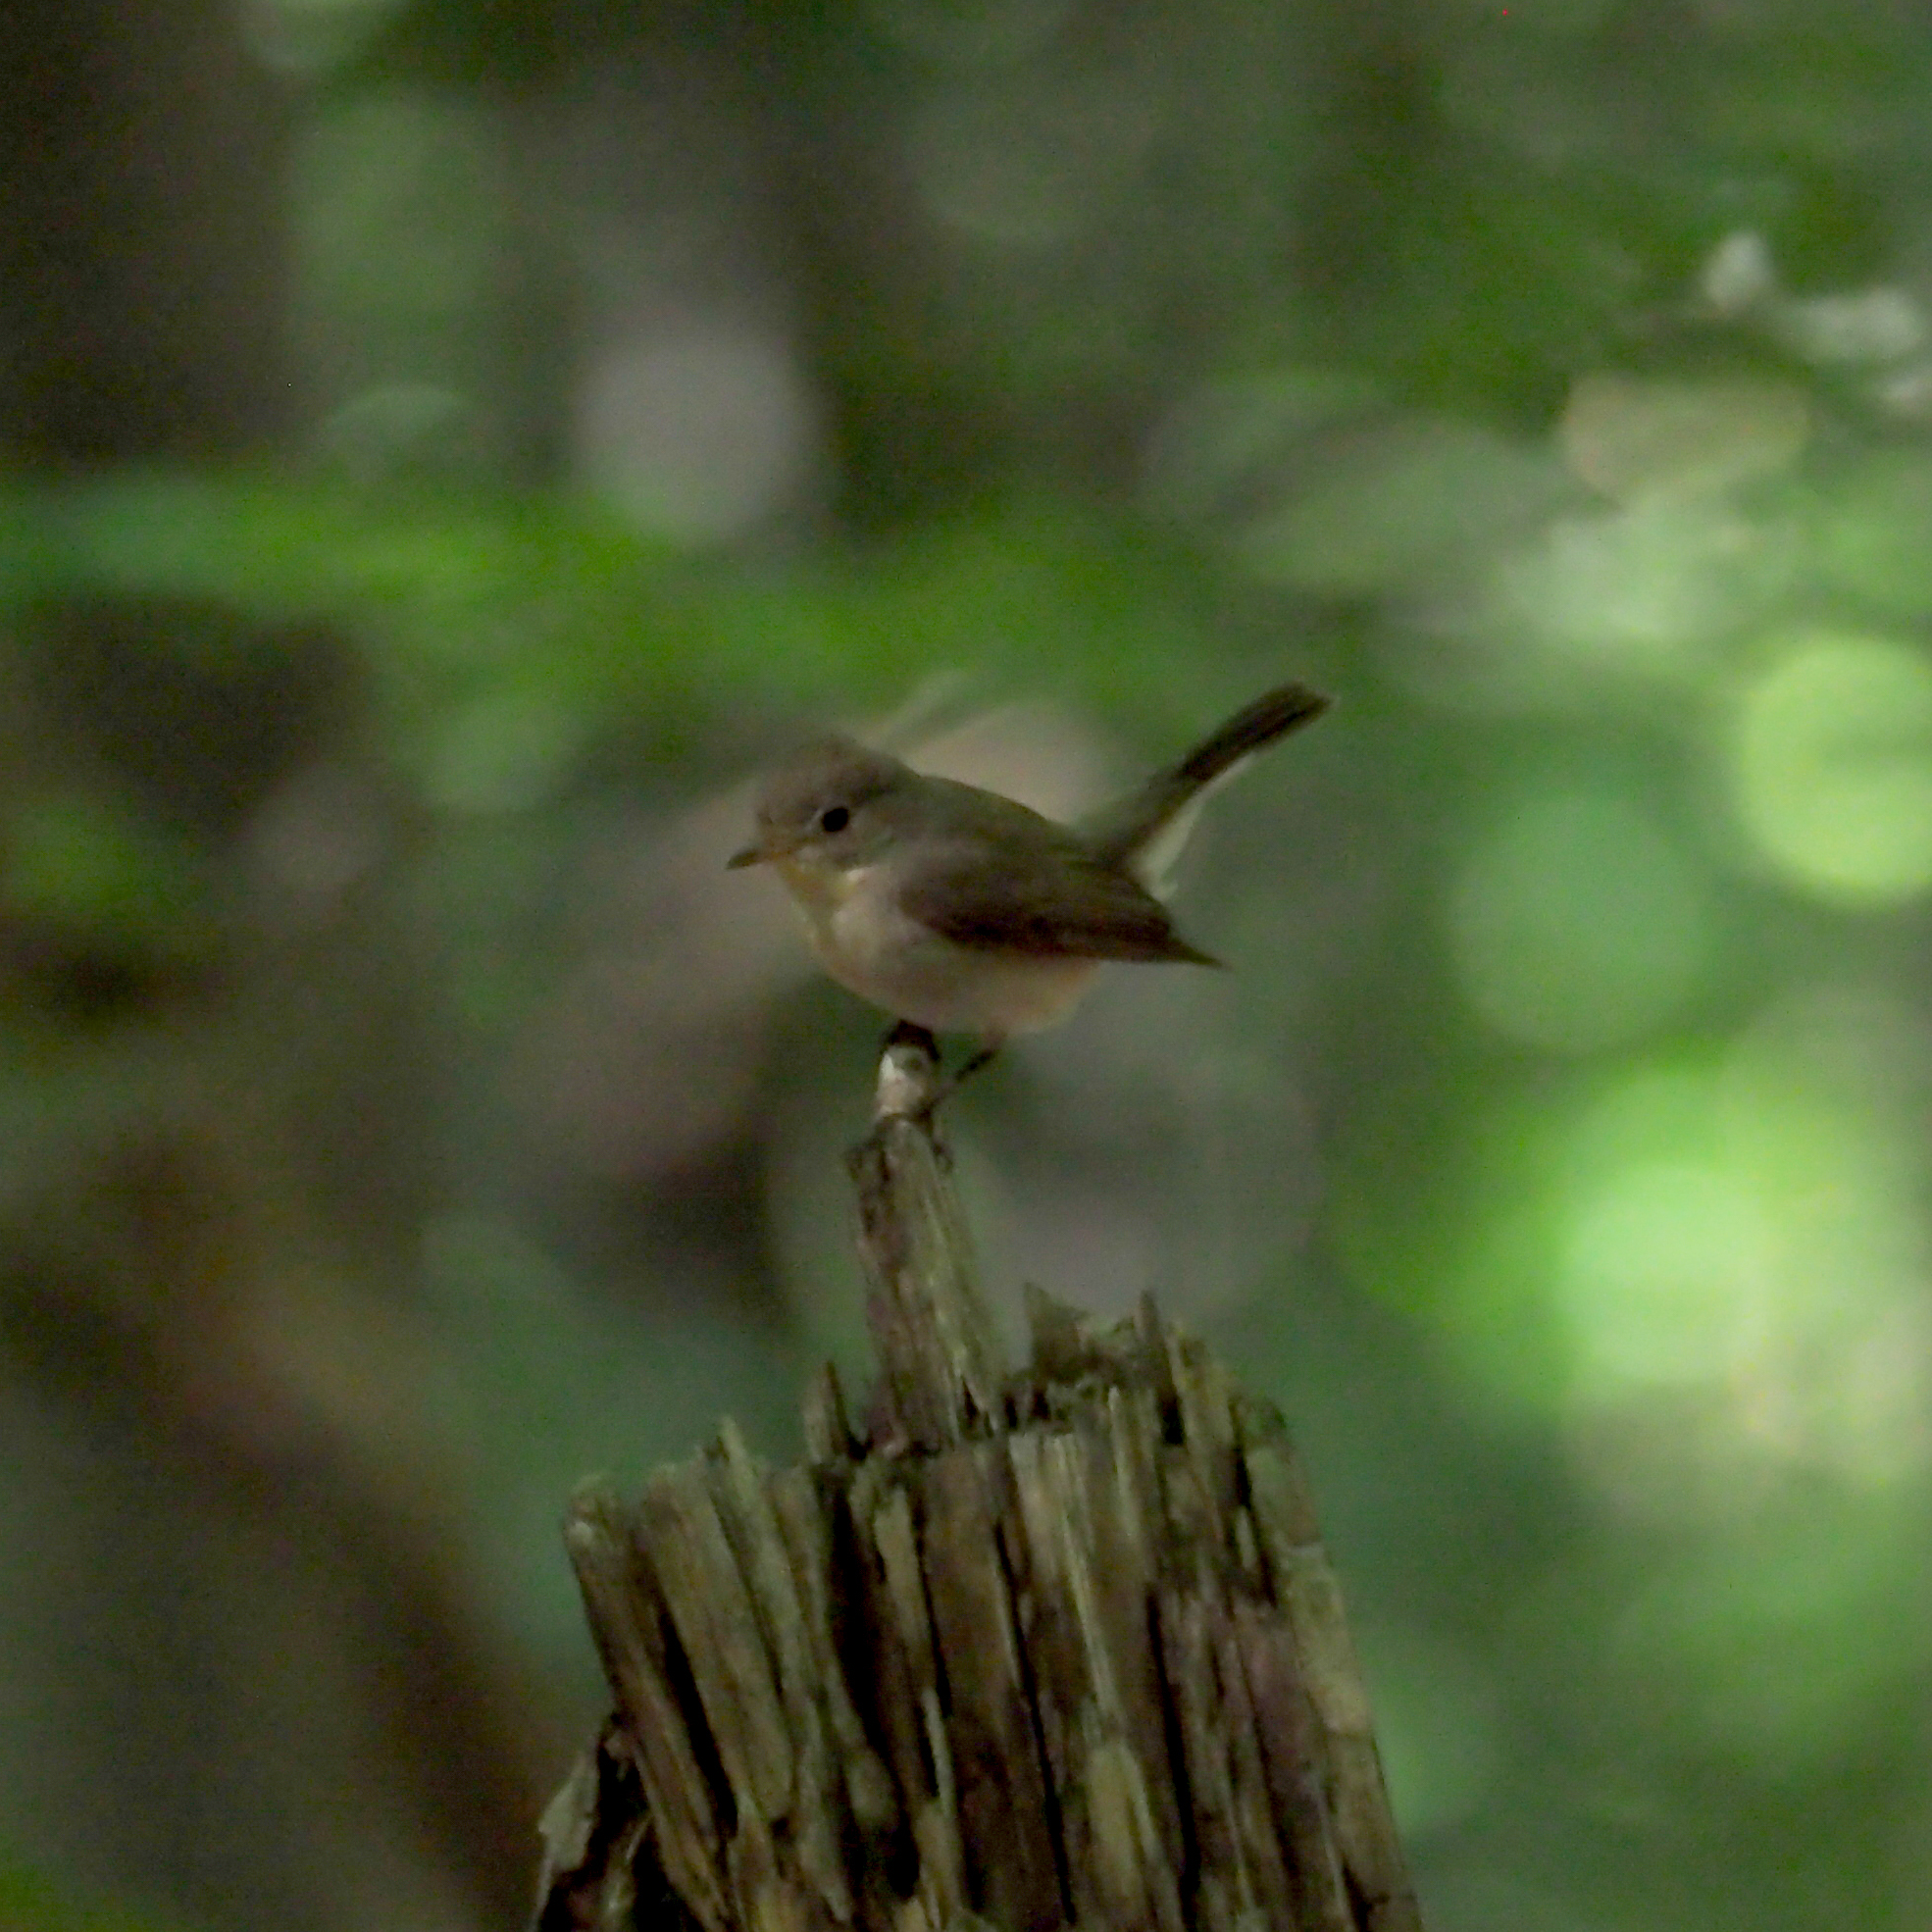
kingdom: Animalia
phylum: Chordata
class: Aves
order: Passeriformes
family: Muscicapidae
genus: Ficedula
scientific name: Ficedula parva
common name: Red-breasted flycatcher
